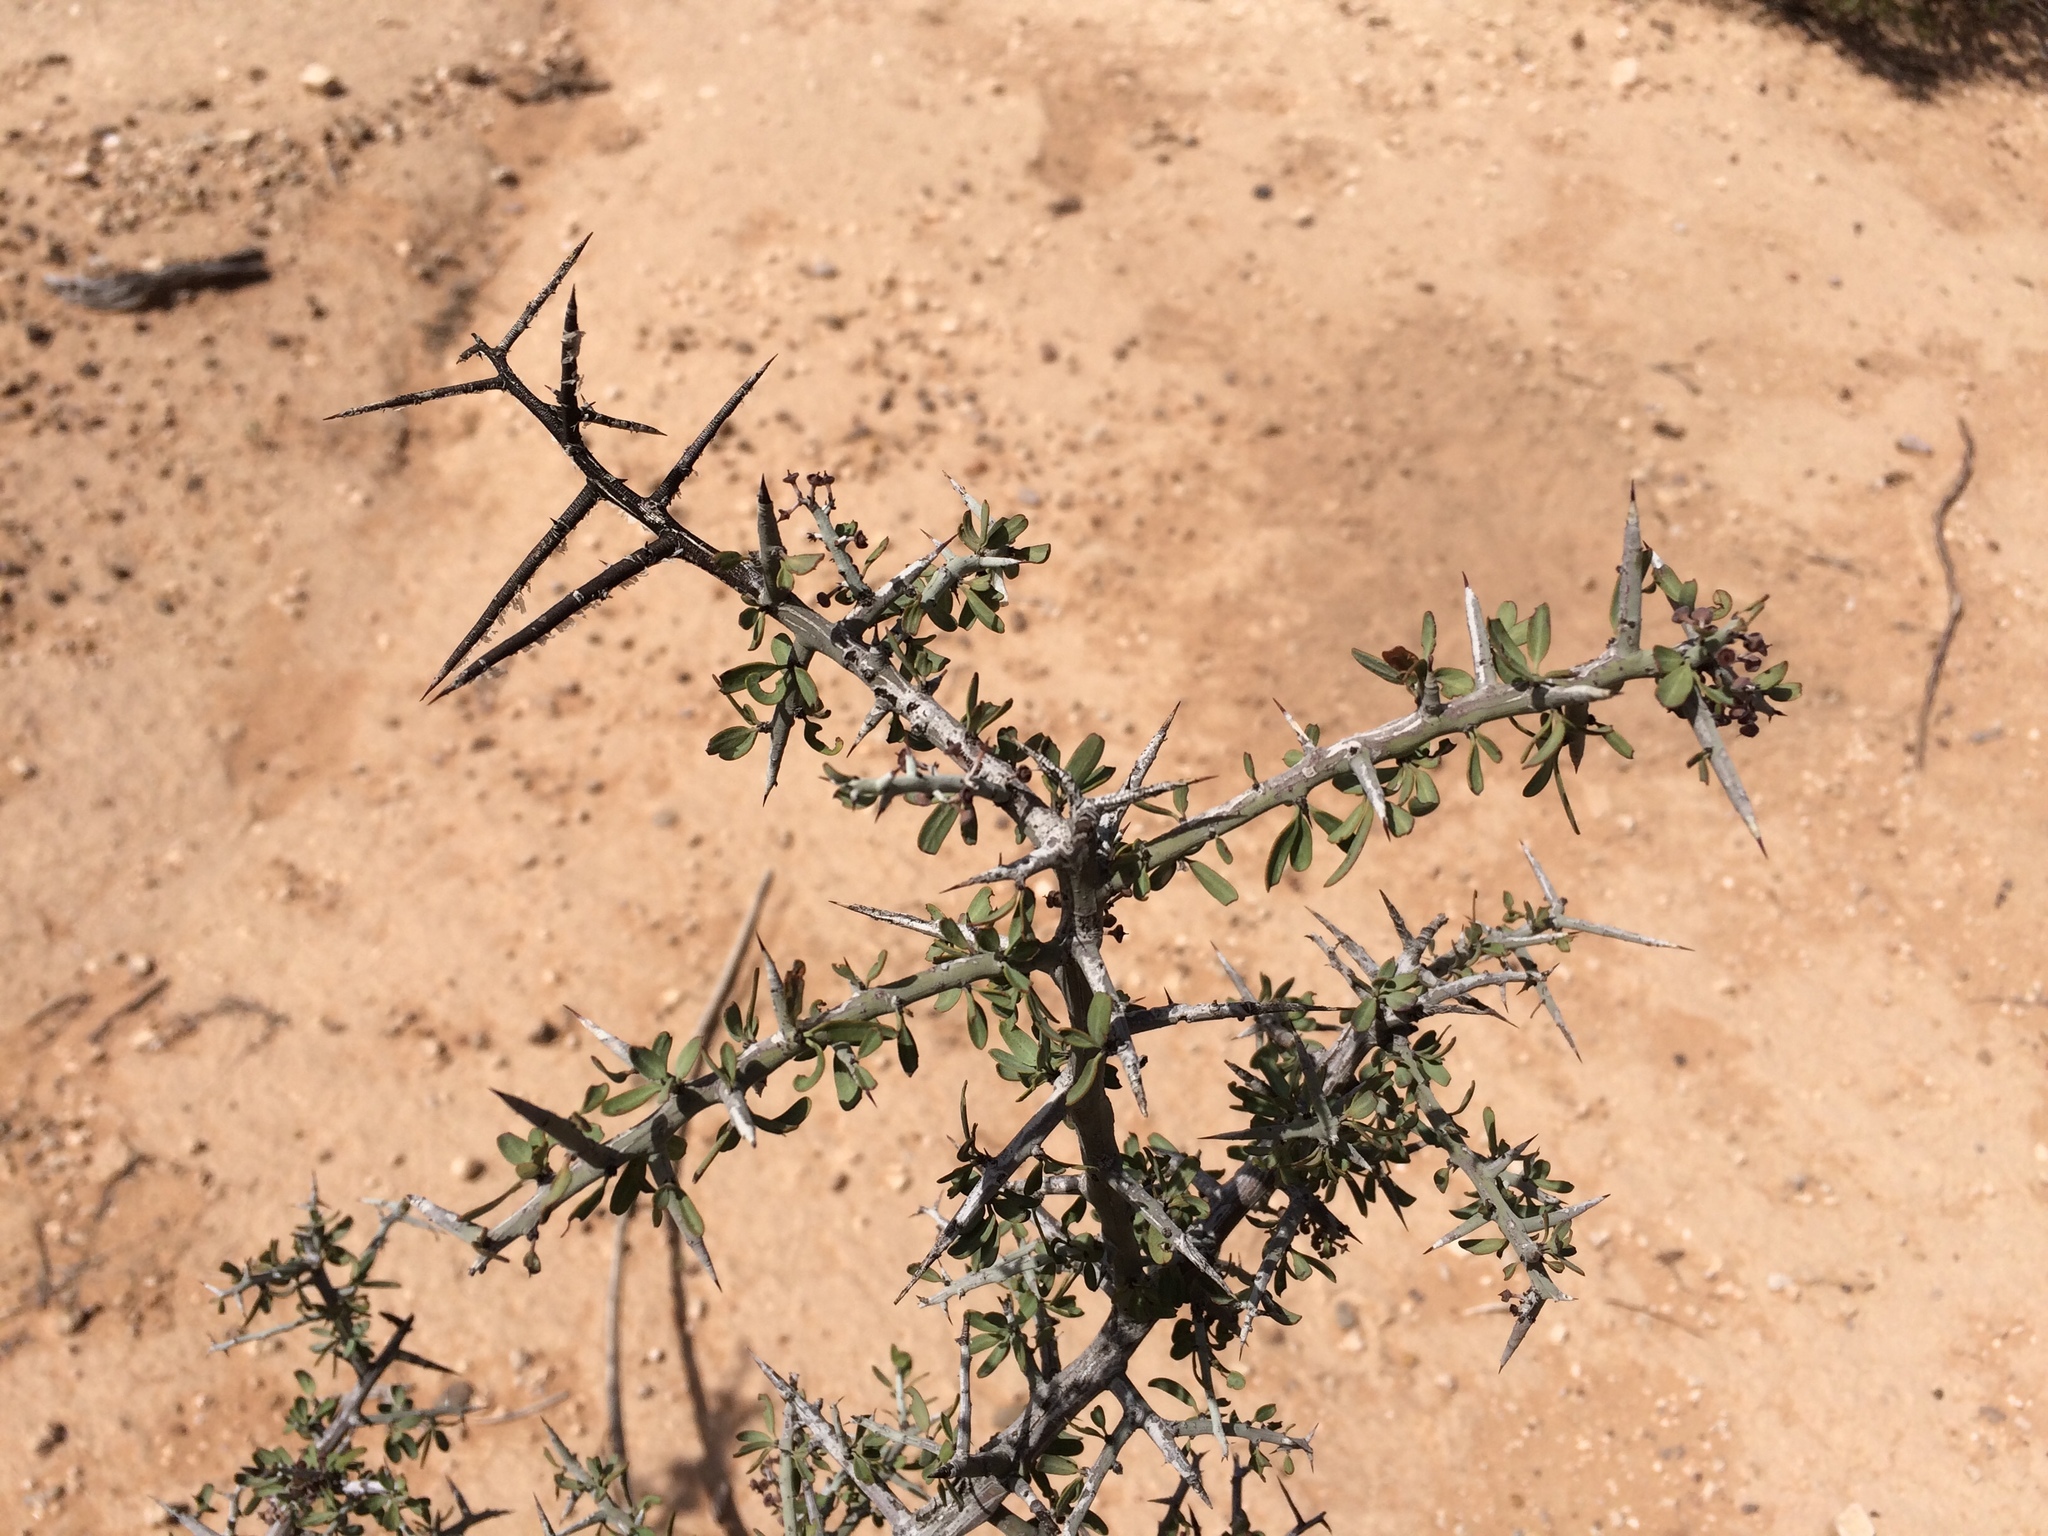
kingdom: Plantae
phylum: Tracheophyta
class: Magnoliopsida
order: Rosales
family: Rhamnaceae
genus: Sarcomphalus
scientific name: Sarcomphalus obtusifolius
